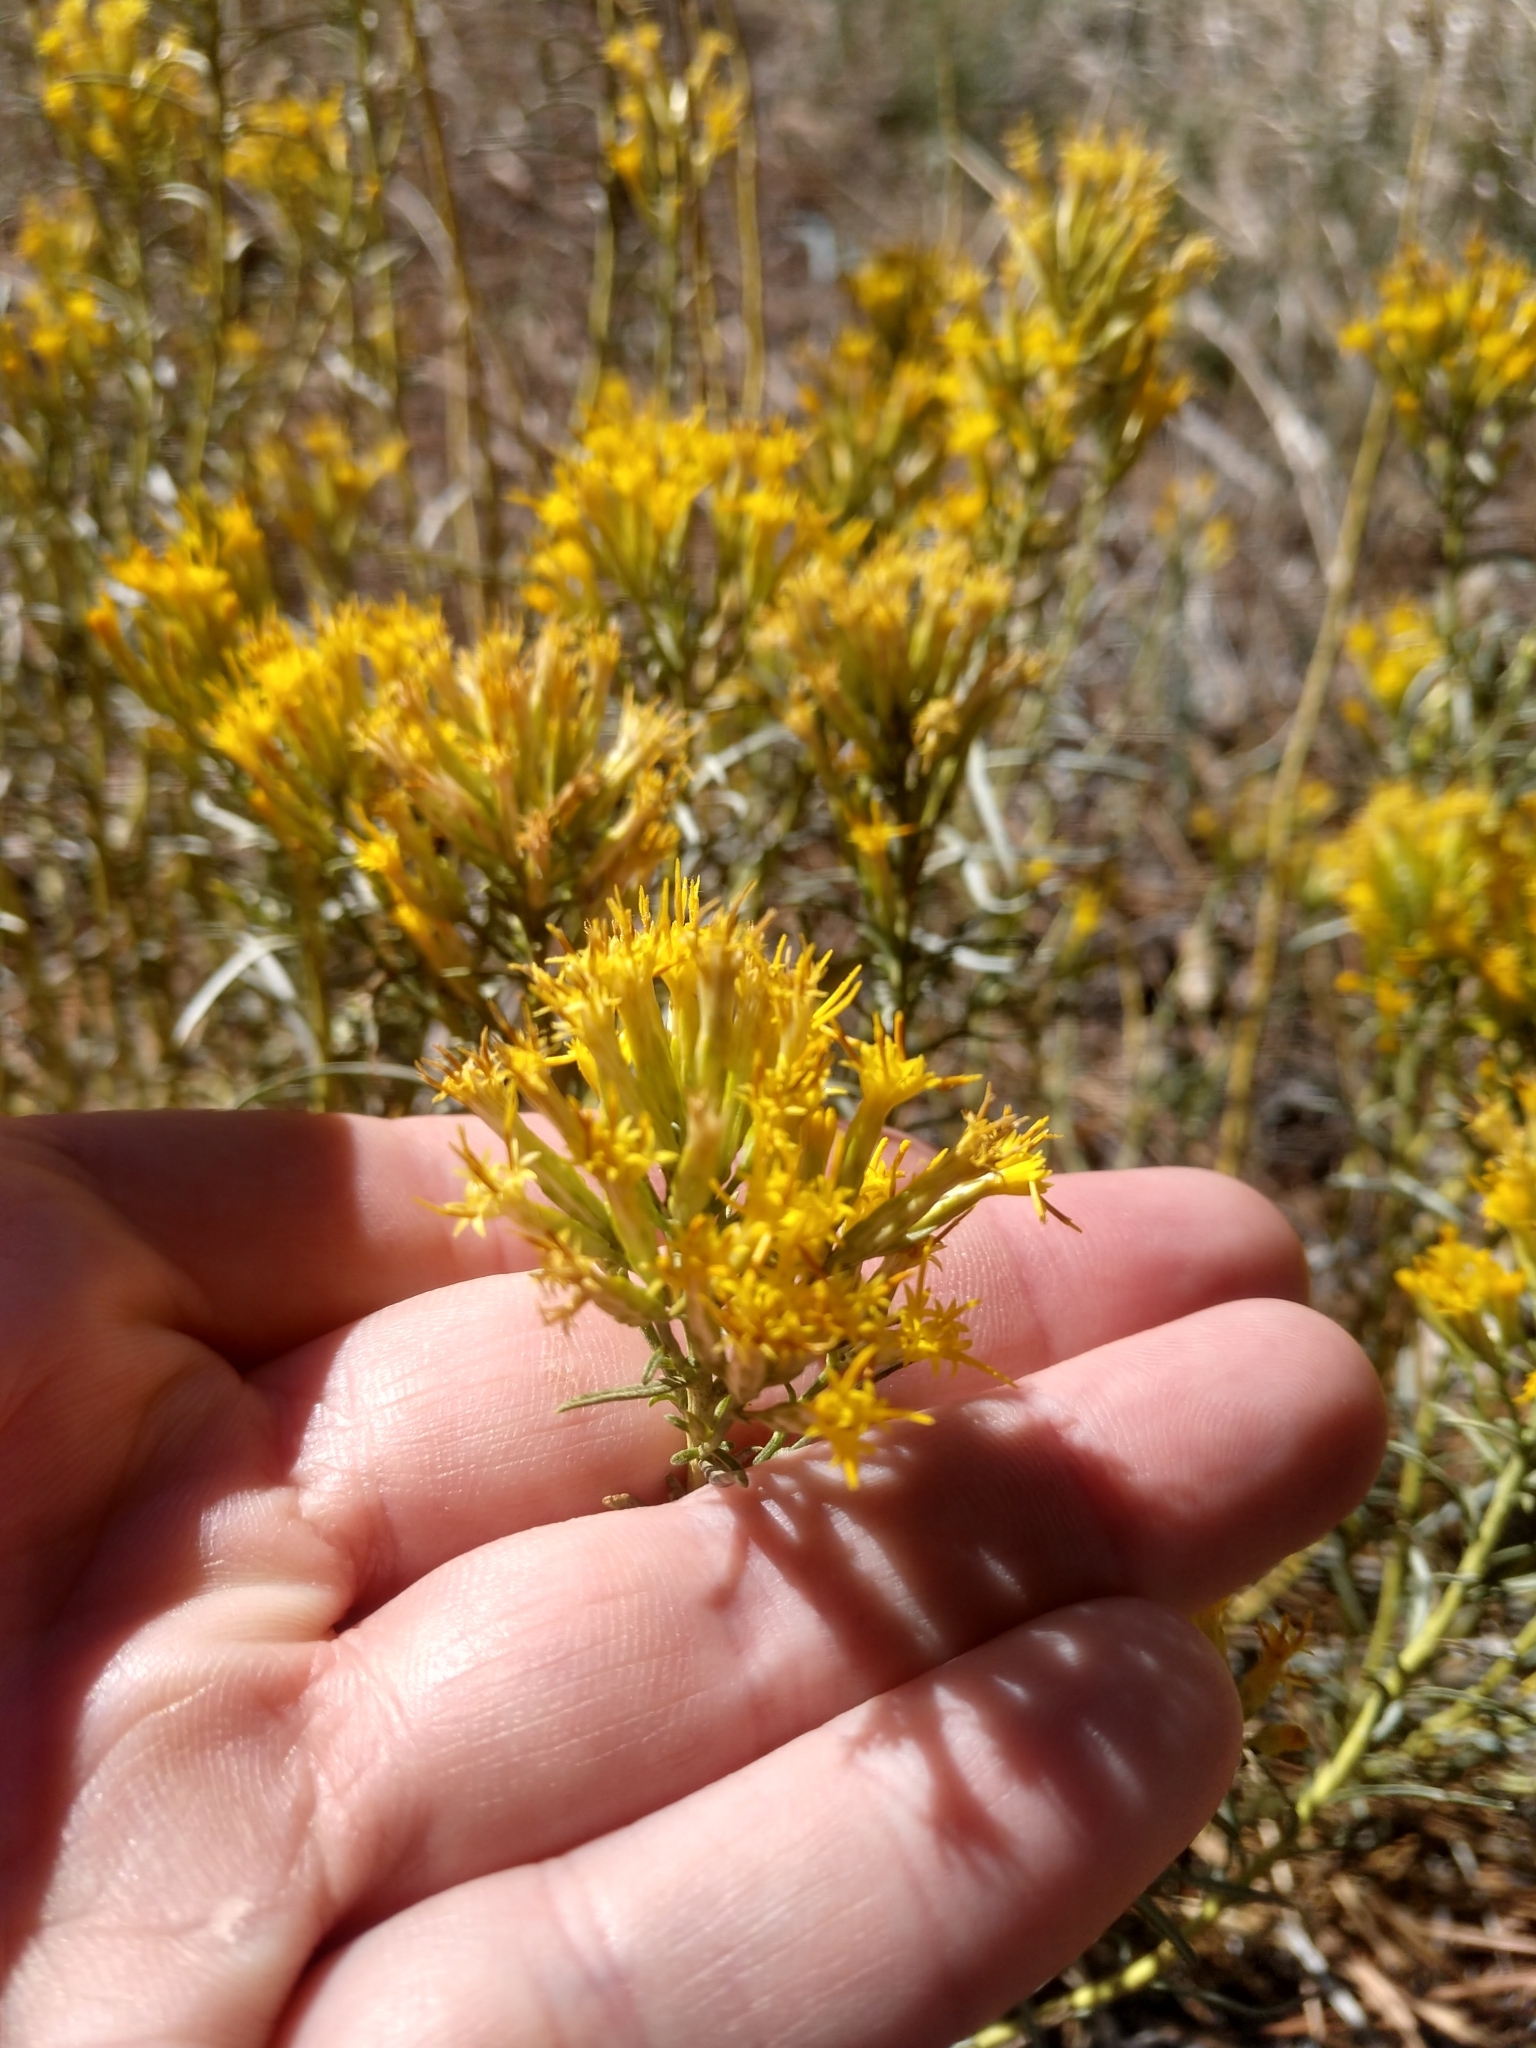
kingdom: Plantae
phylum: Tracheophyta
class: Magnoliopsida
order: Asterales
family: Asteraceae
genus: Ericameria
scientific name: Ericameria nauseosa
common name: Rubber rabbitbrush
